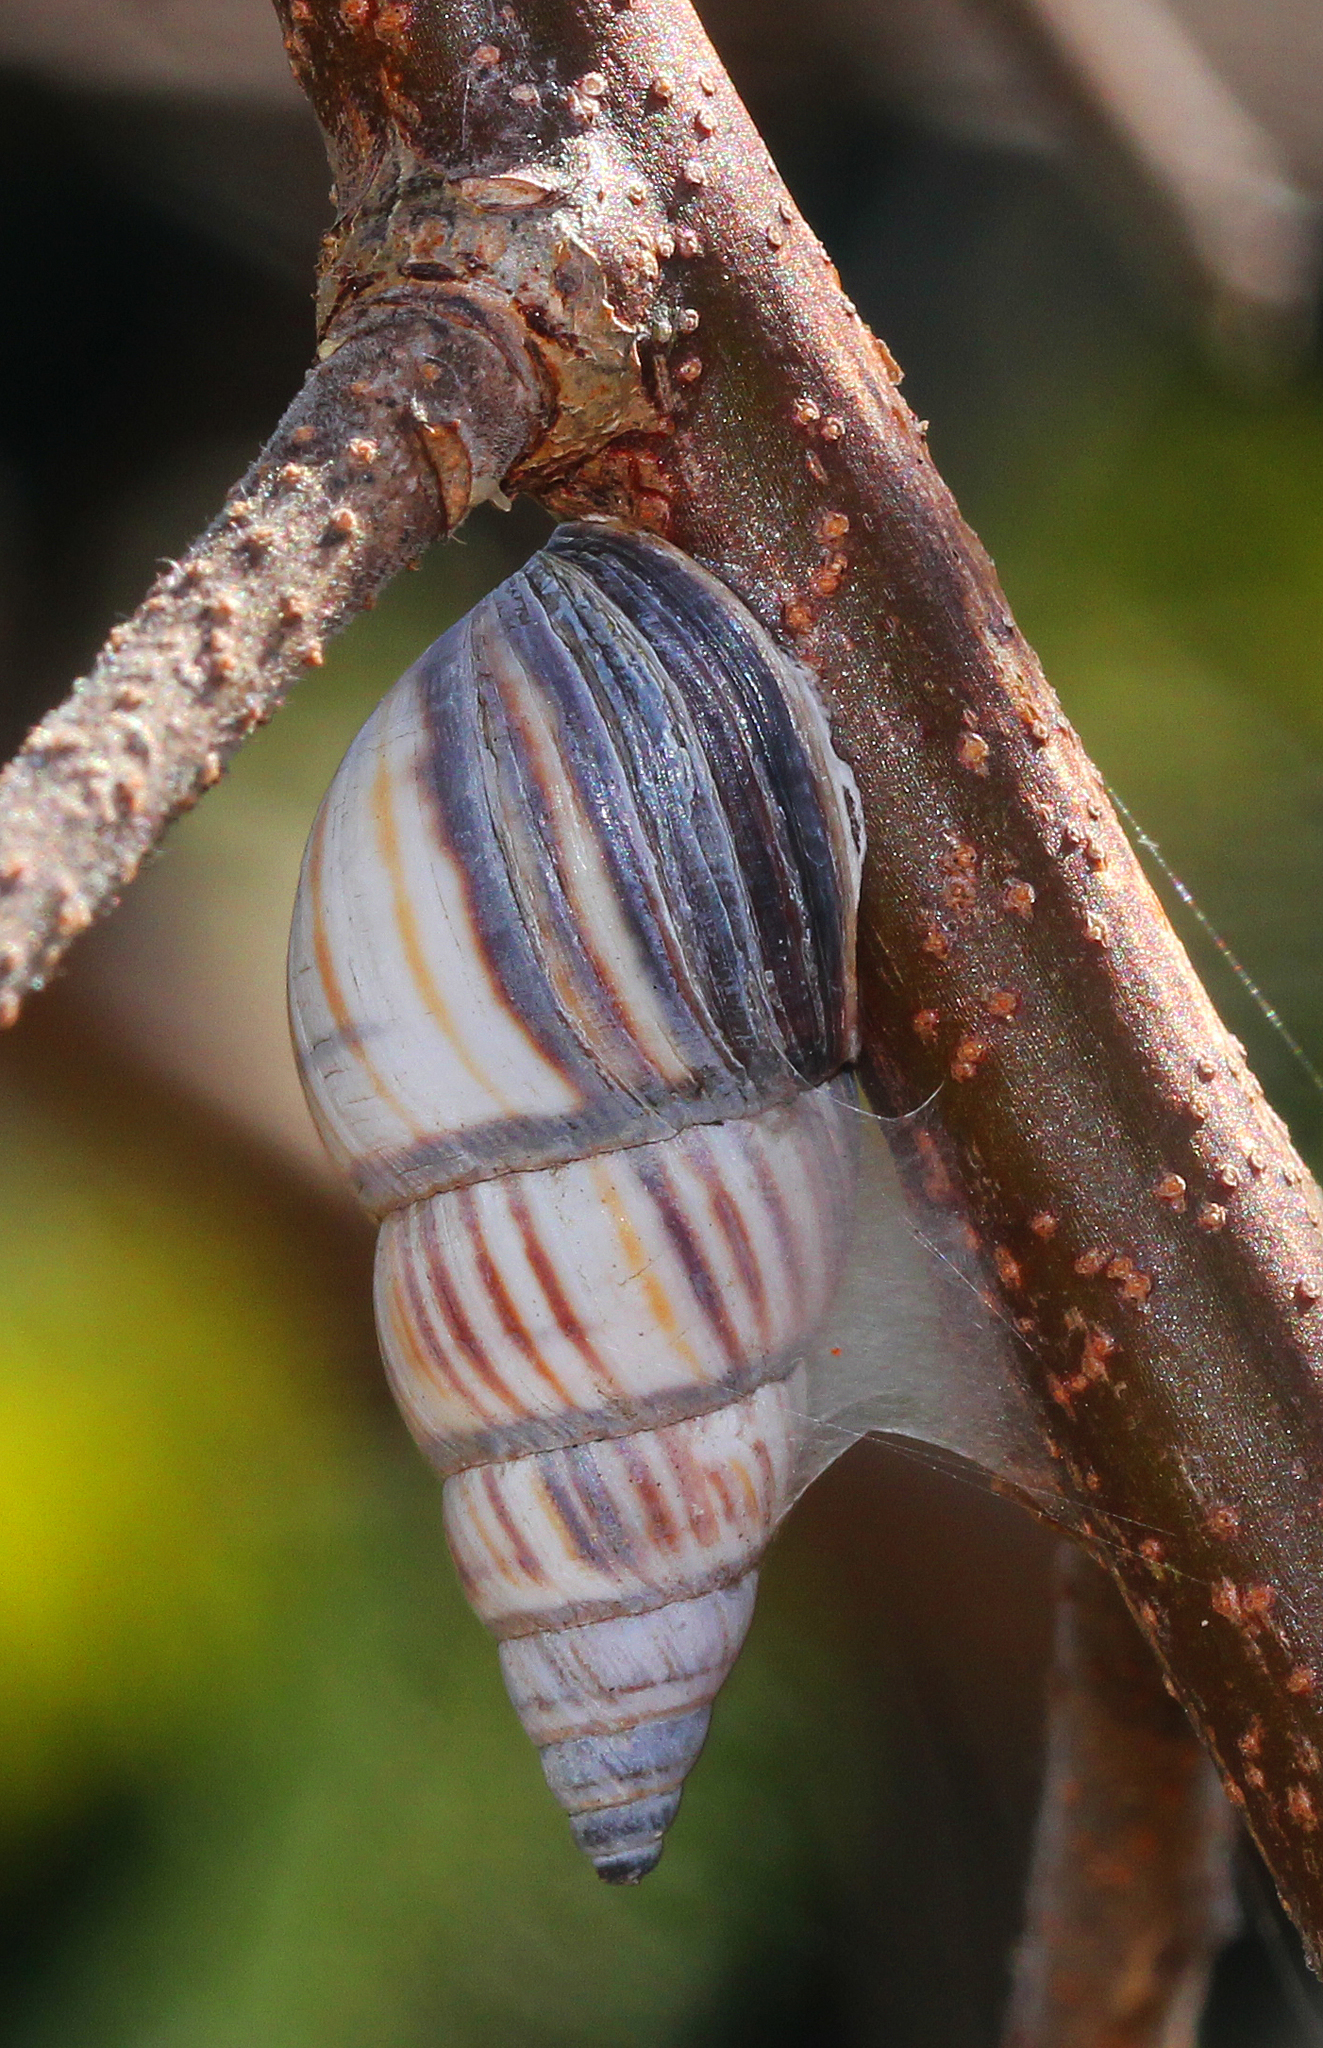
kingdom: Animalia
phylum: Mollusca
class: Gastropoda
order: Stylommatophora
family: Bulimulidae
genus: Drymaeus
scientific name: Drymaeus
